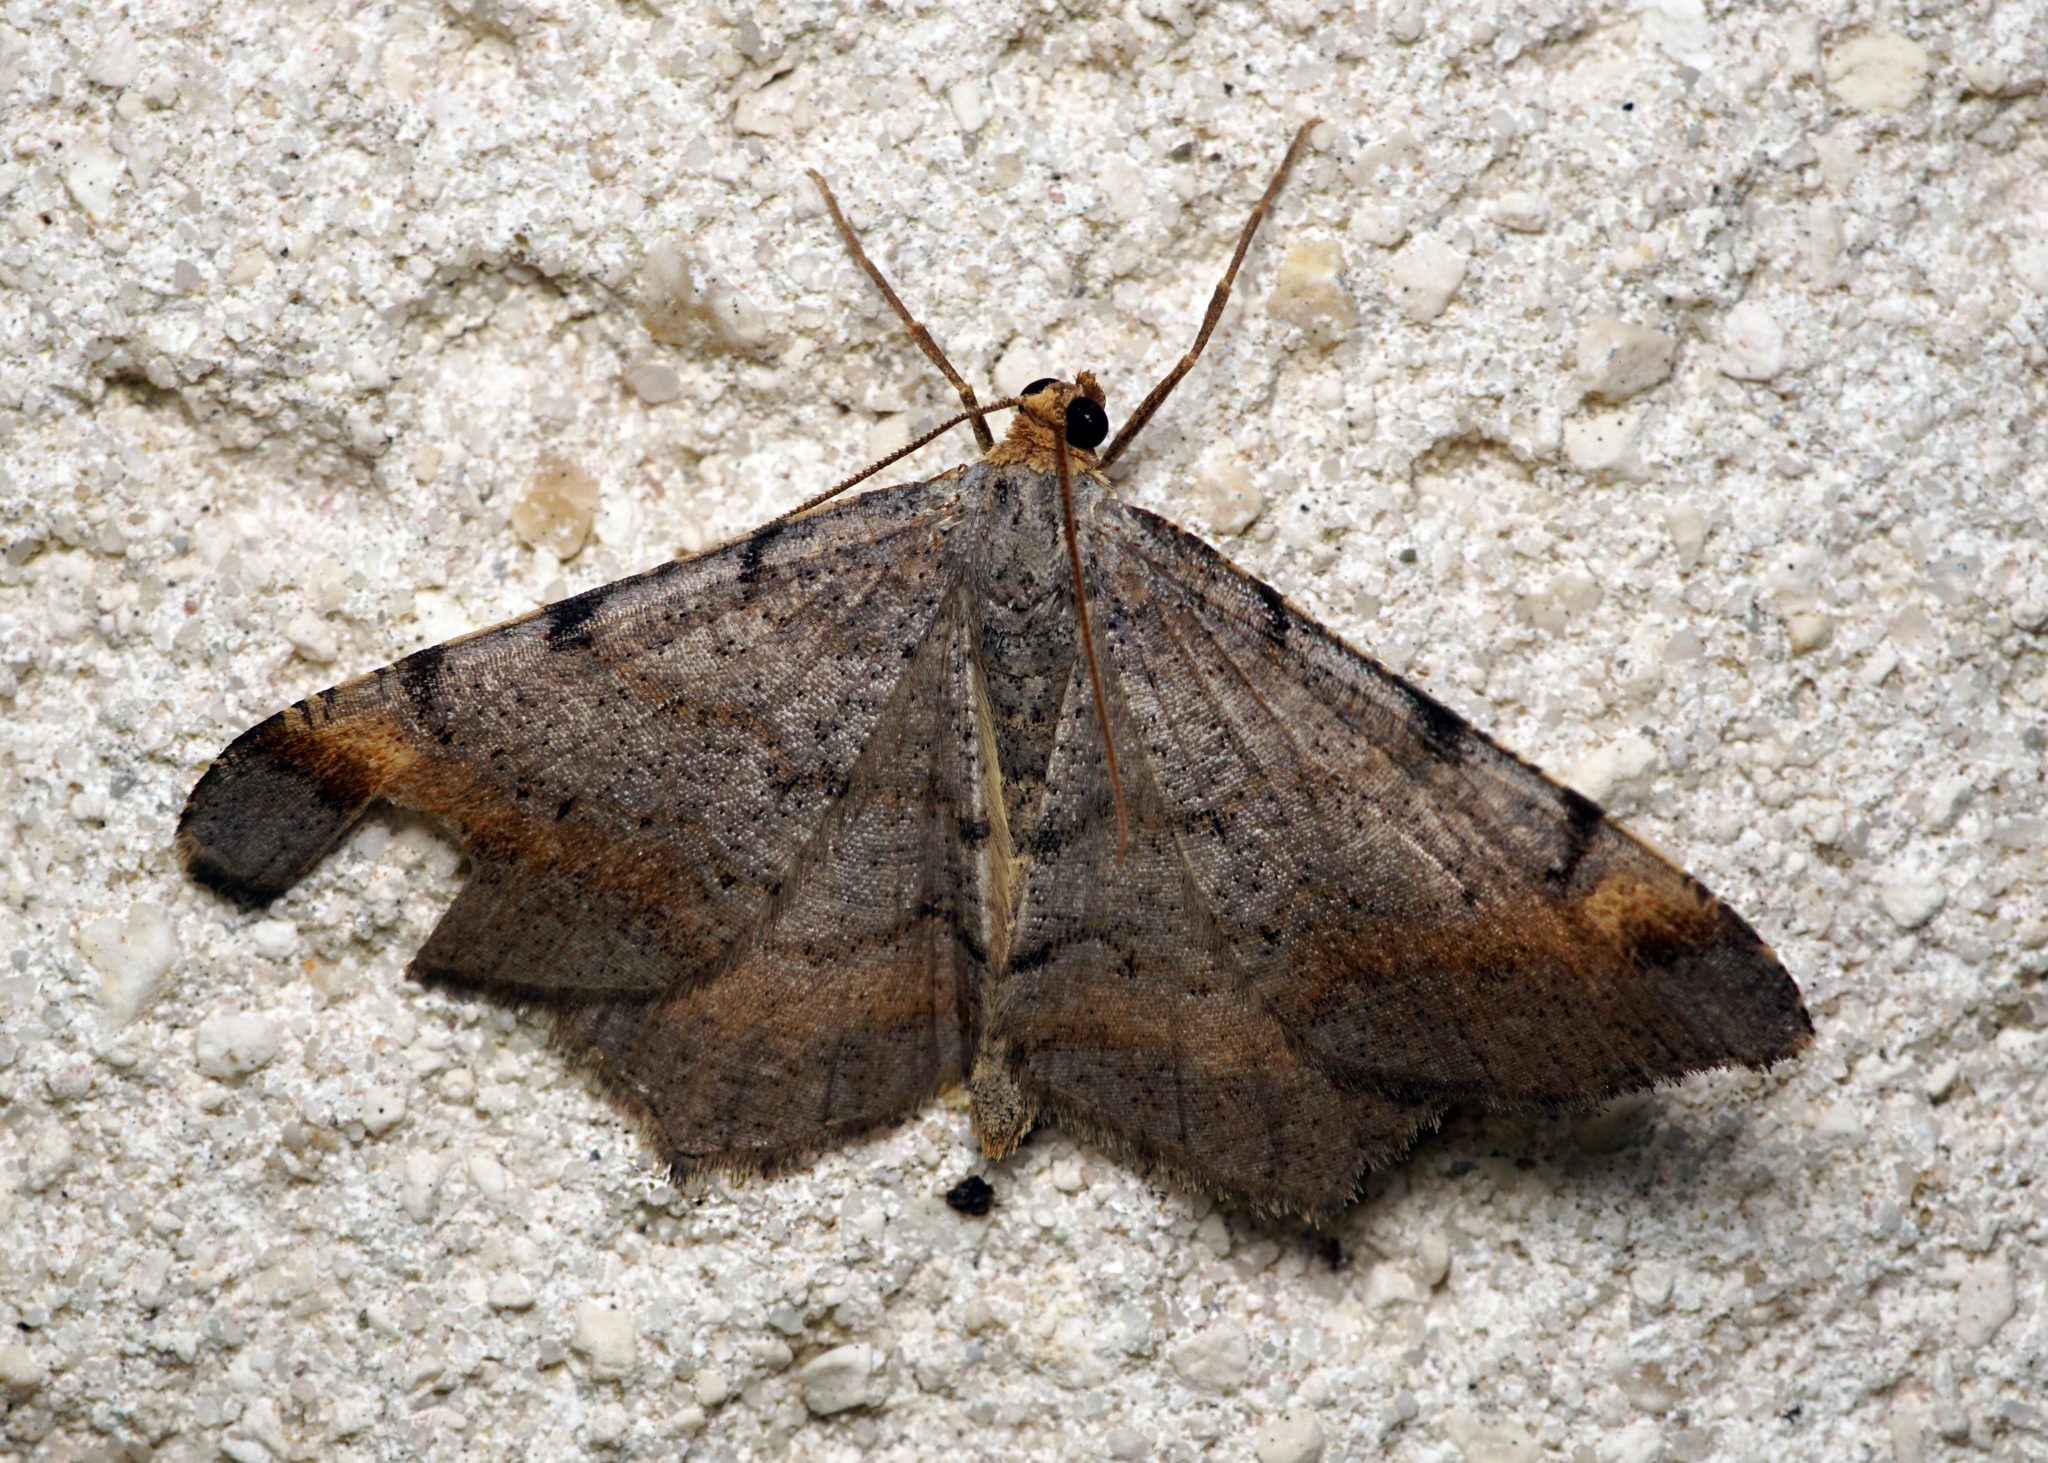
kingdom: Animalia
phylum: Arthropoda
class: Insecta
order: Lepidoptera
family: Geometridae
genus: Macaria
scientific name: Macaria liturata
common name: Tawny-barred angle
